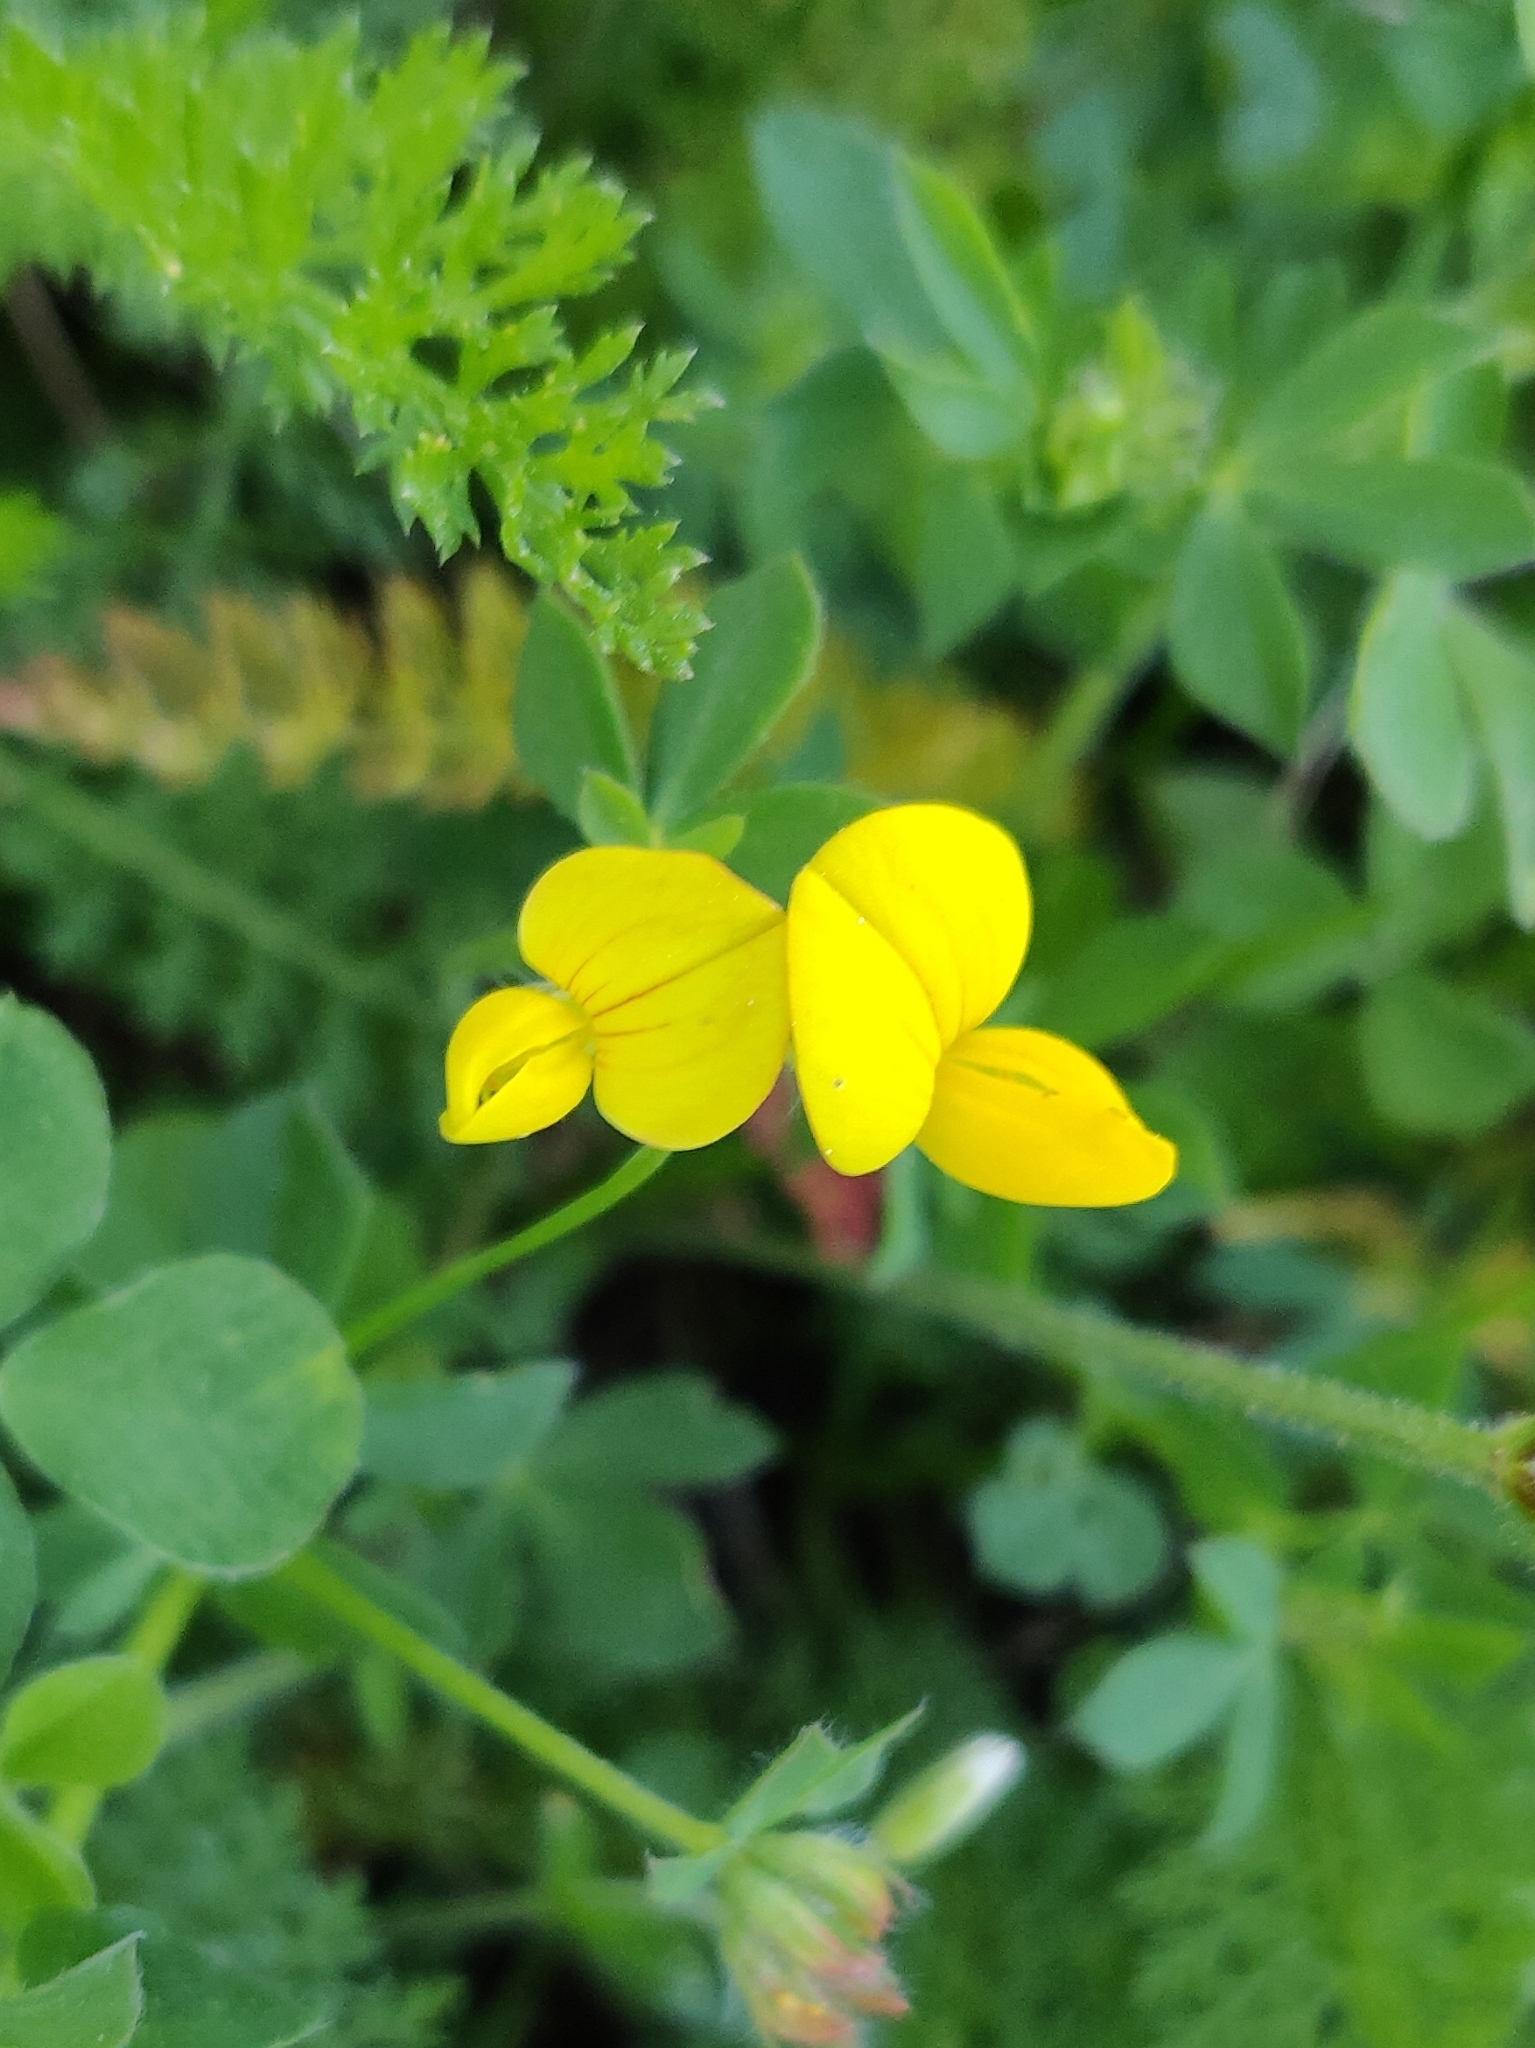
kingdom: Plantae
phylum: Tracheophyta
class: Magnoliopsida
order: Fabales
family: Fabaceae
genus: Lotus
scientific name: Lotus corniculatus
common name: Common bird's-foot-trefoil
